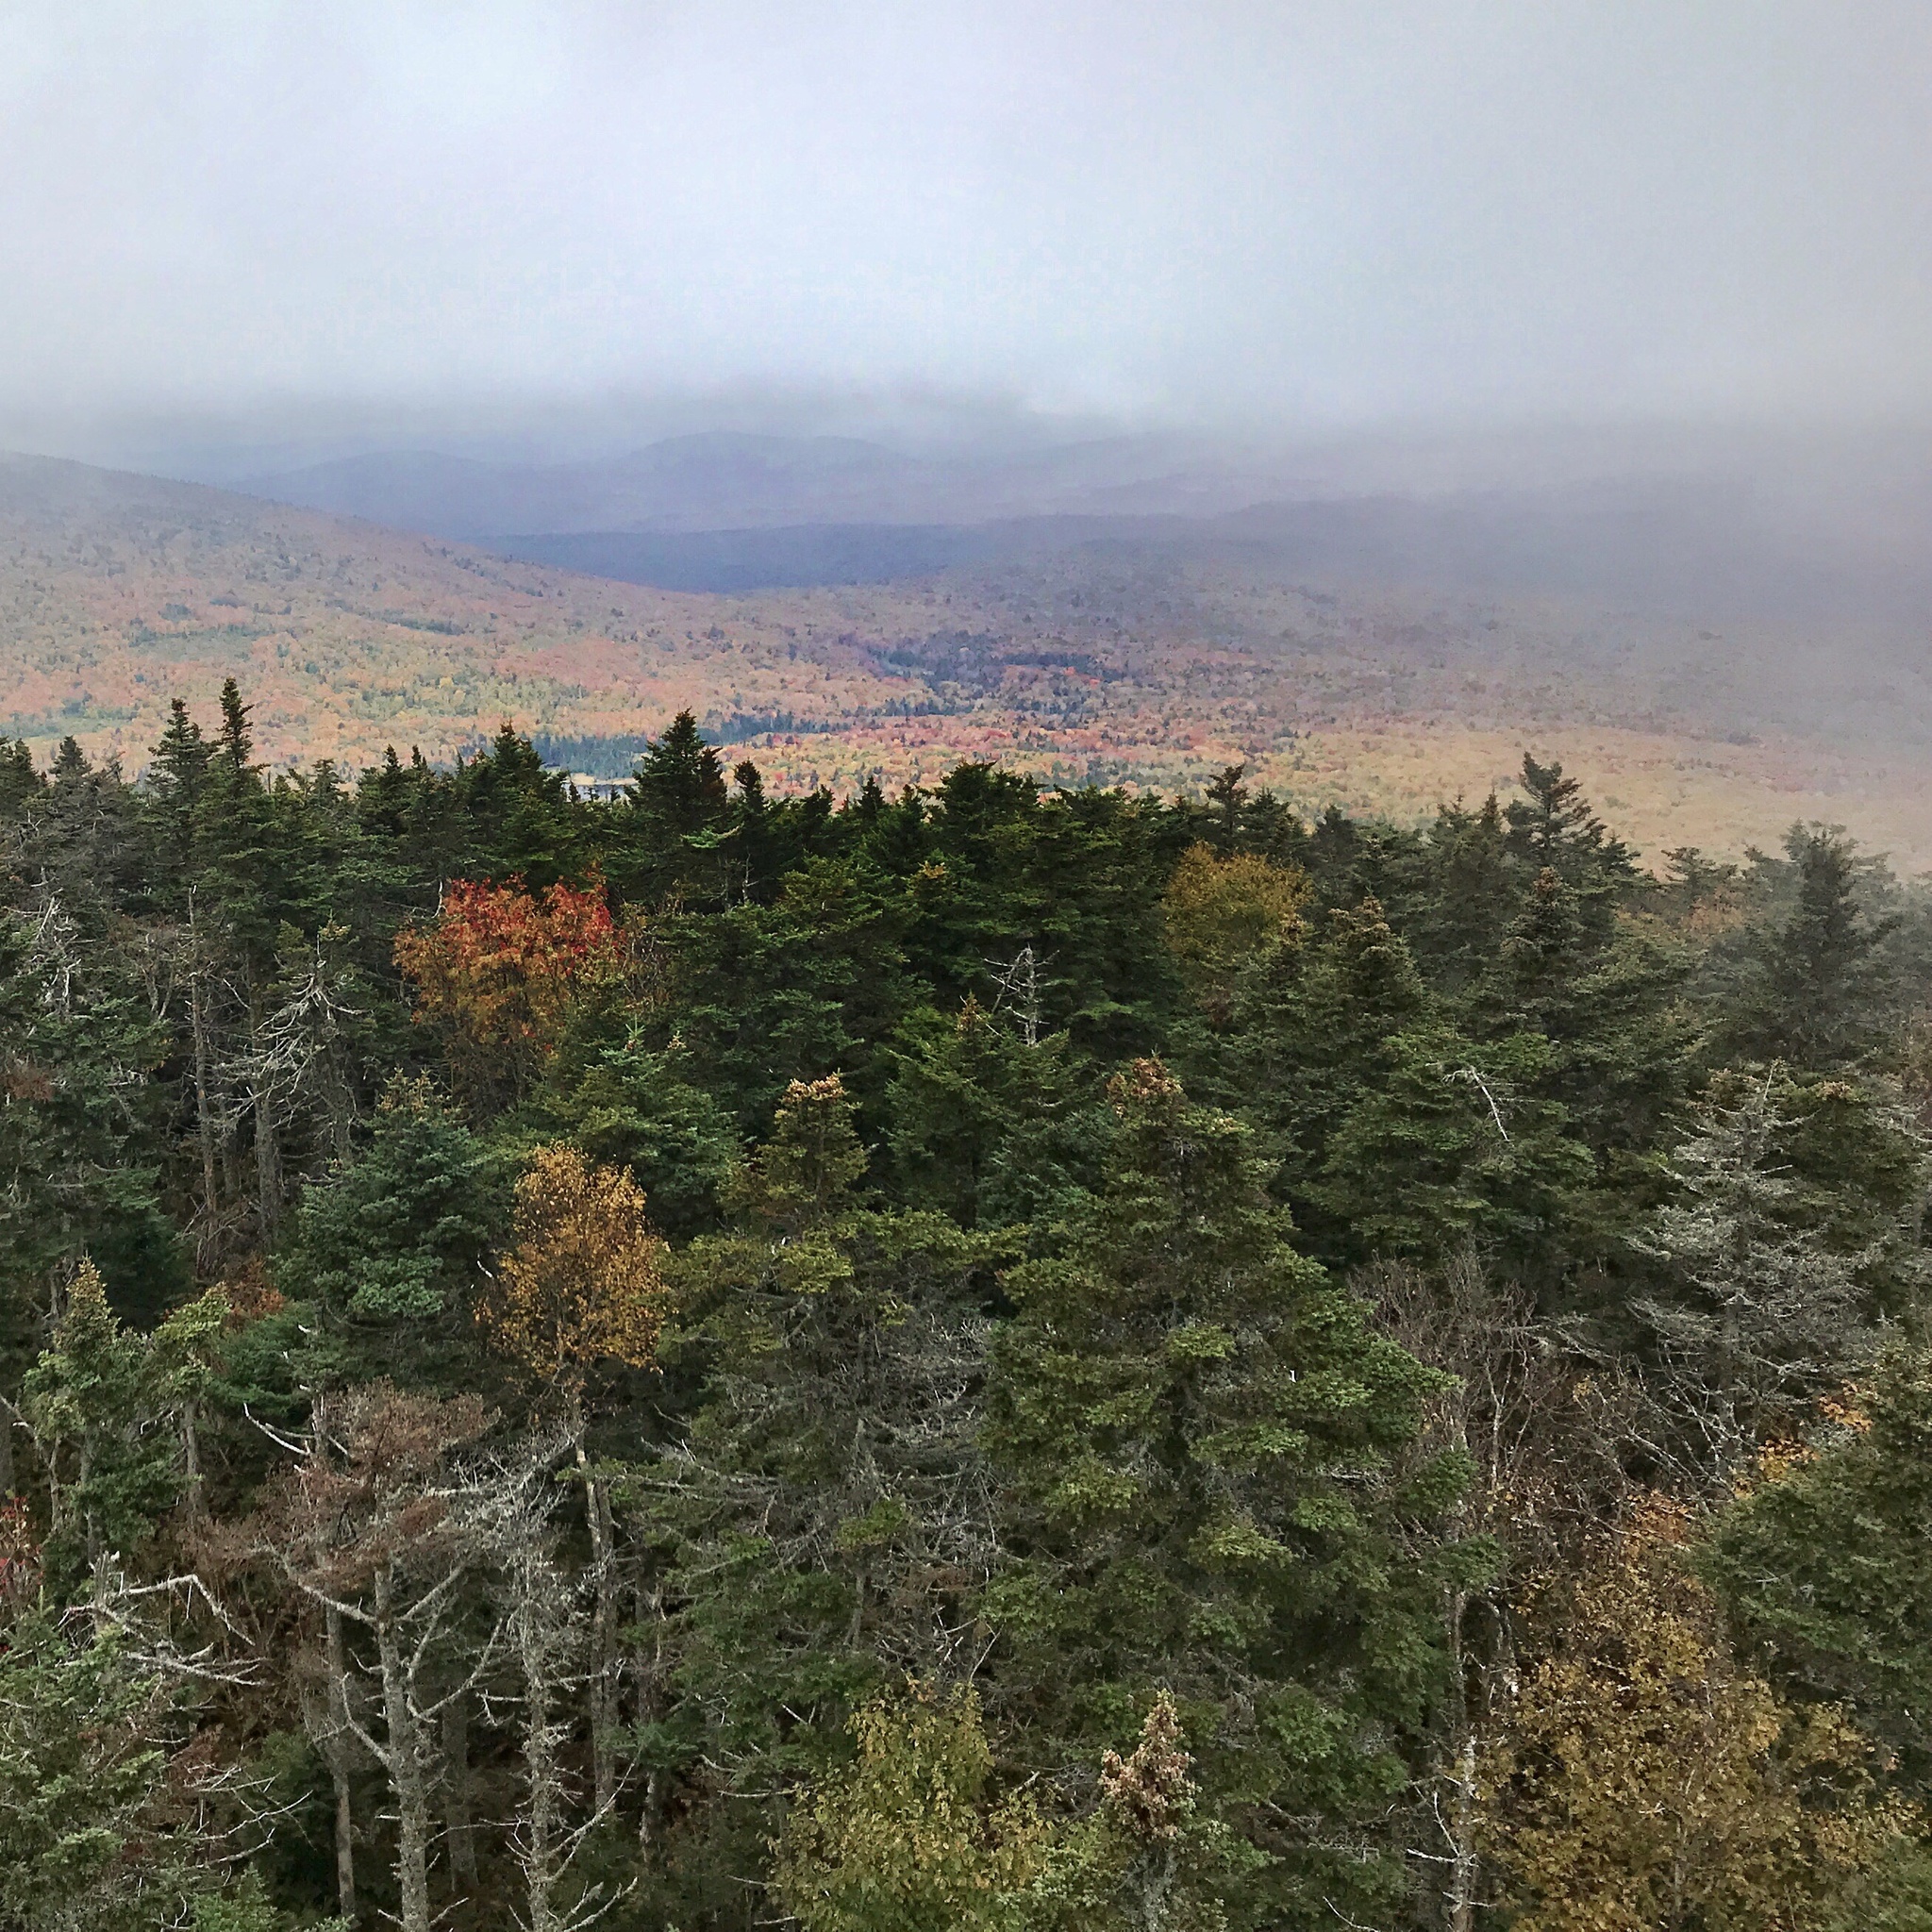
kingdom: Plantae
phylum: Tracheophyta
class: Pinopsida
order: Pinales
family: Pinaceae
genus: Abies
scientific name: Abies balsamea
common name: Balsam fir
